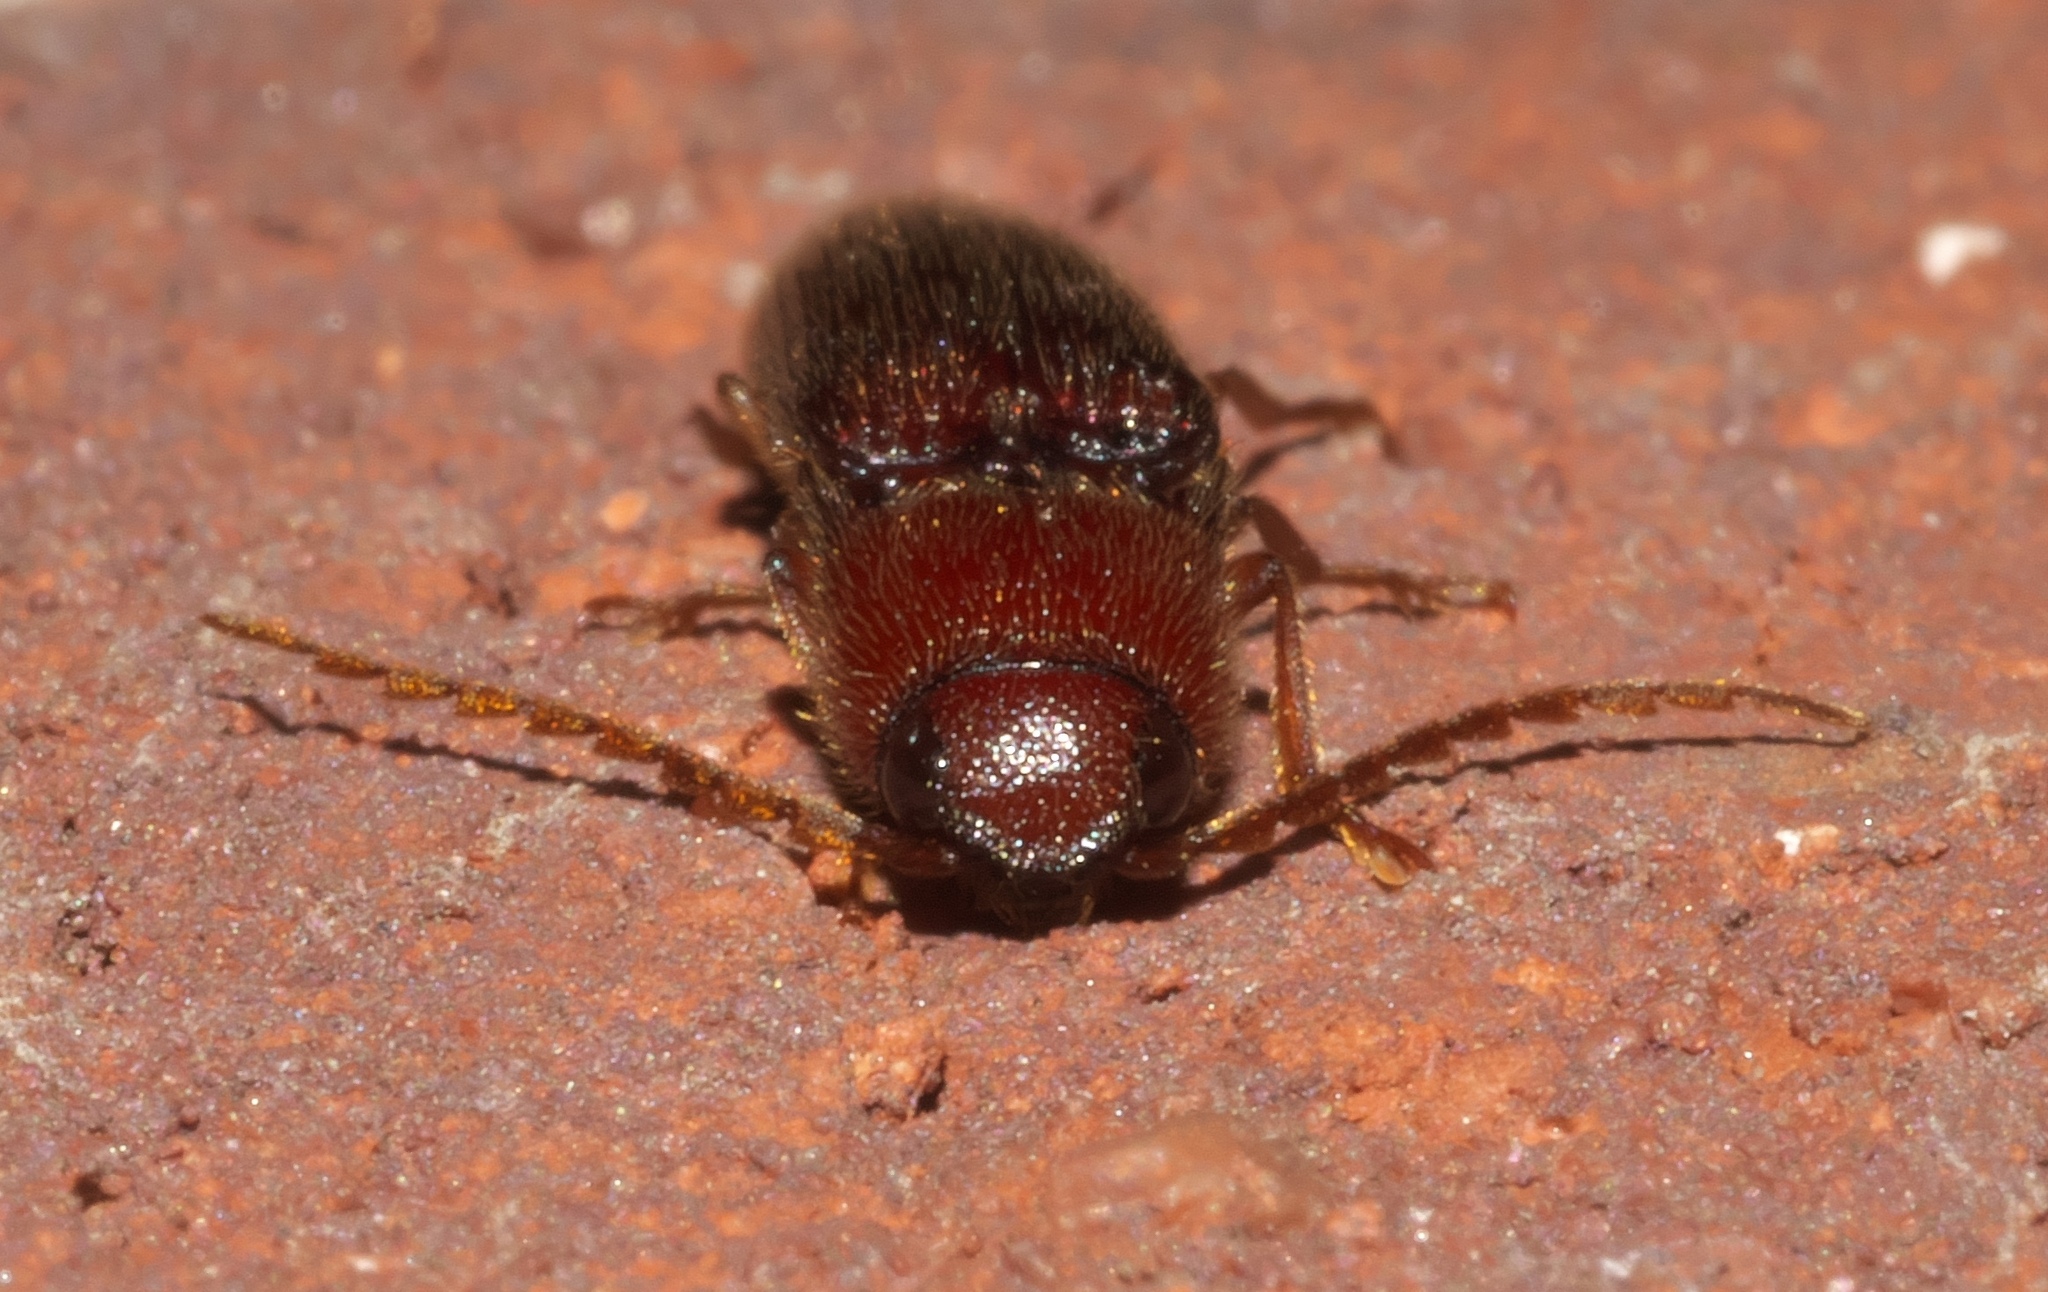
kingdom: Animalia
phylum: Arthropoda
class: Insecta
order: Coleoptera
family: Elateridae
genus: Dicrepidius
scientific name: Dicrepidius palmatus
